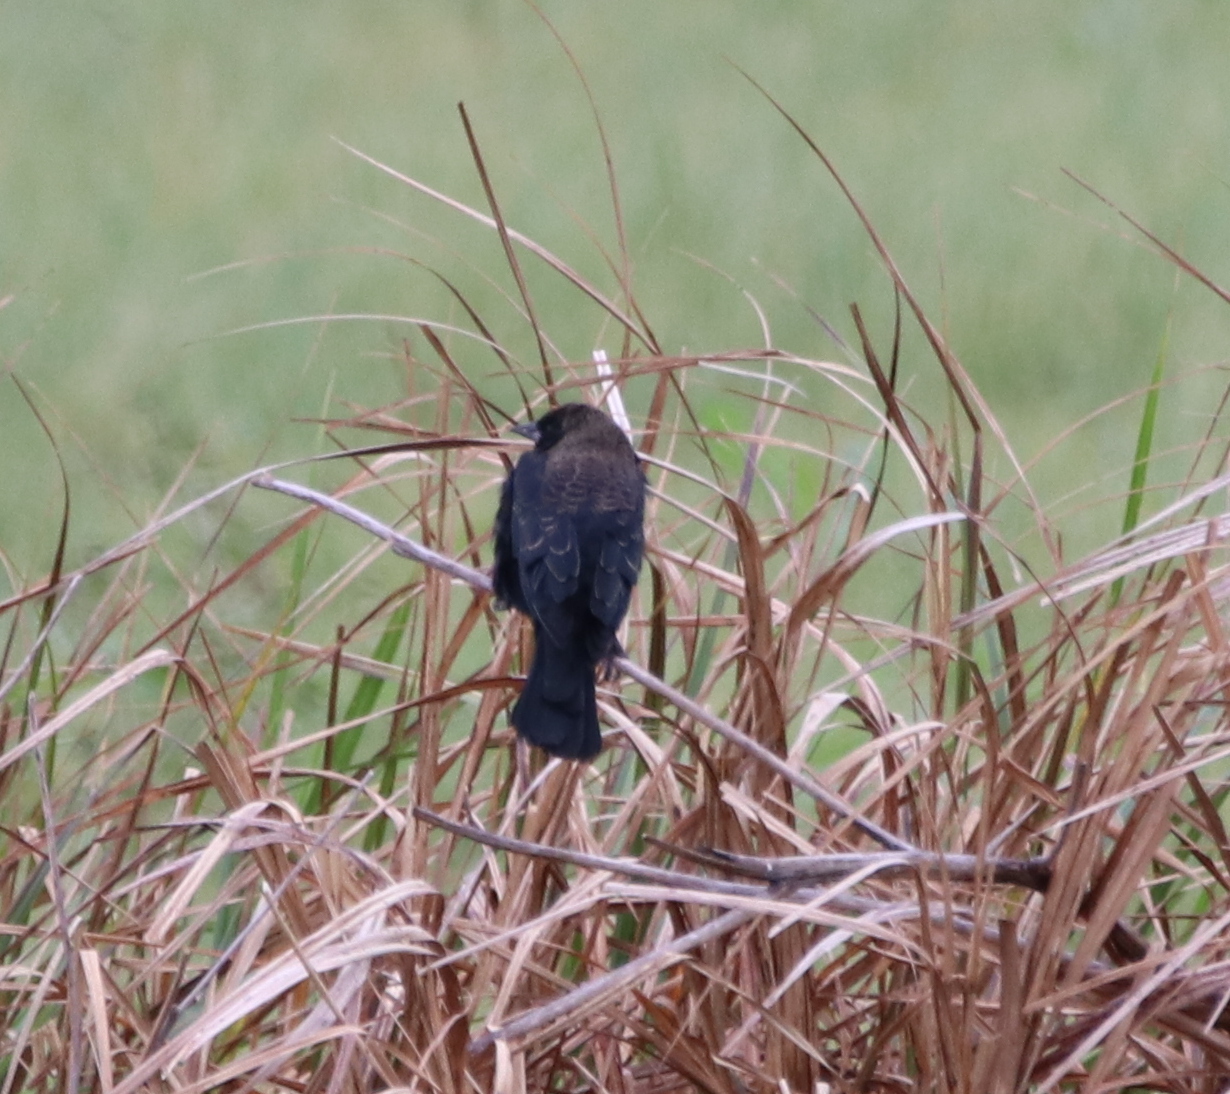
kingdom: Animalia
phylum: Chordata
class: Aves
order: Passeriformes
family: Icteridae
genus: Agelaius
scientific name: Agelaius phoeniceus
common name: Red-winged blackbird
